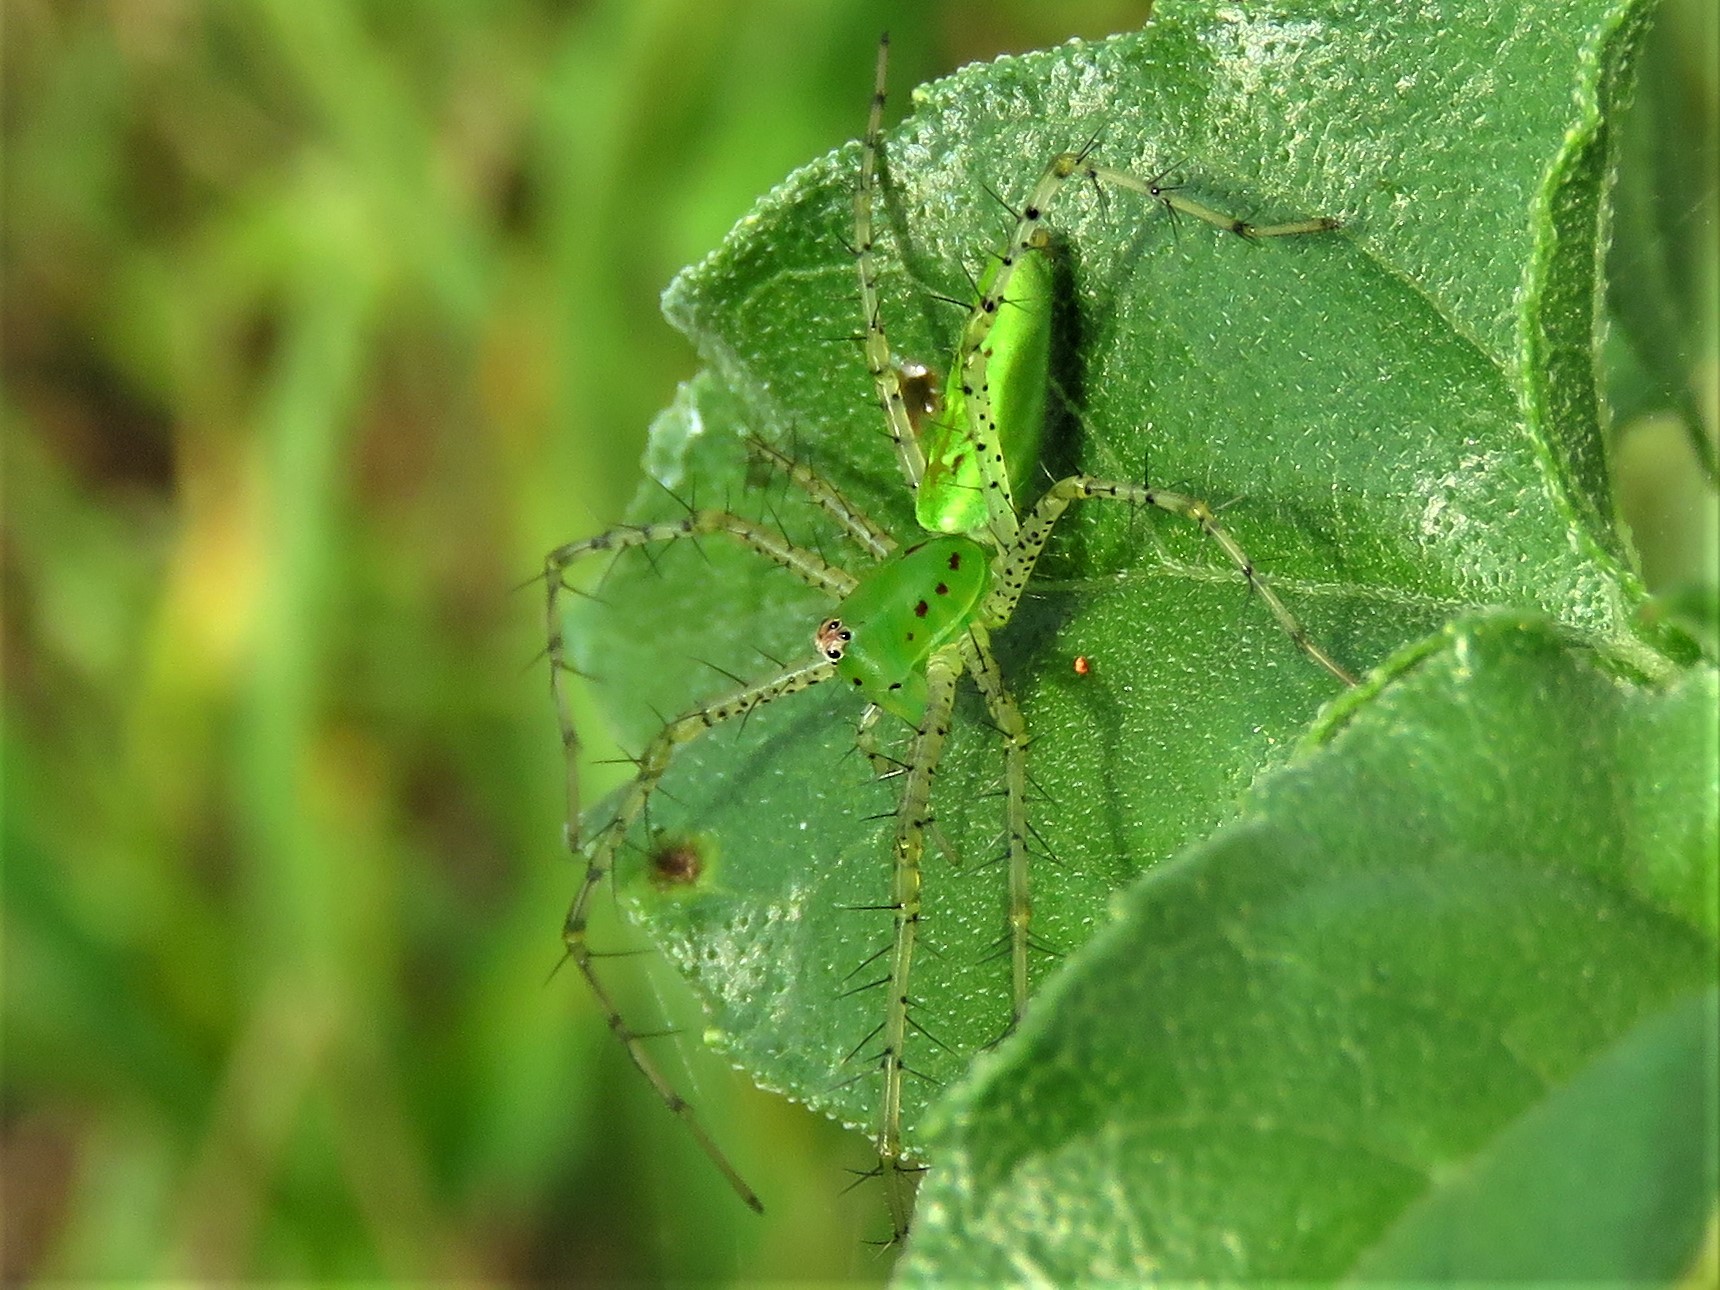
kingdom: Animalia
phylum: Arthropoda
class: Arachnida
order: Araneae
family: Oxyopidae
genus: Peucetia
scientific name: Peucetia viridans
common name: Lynx spiders
